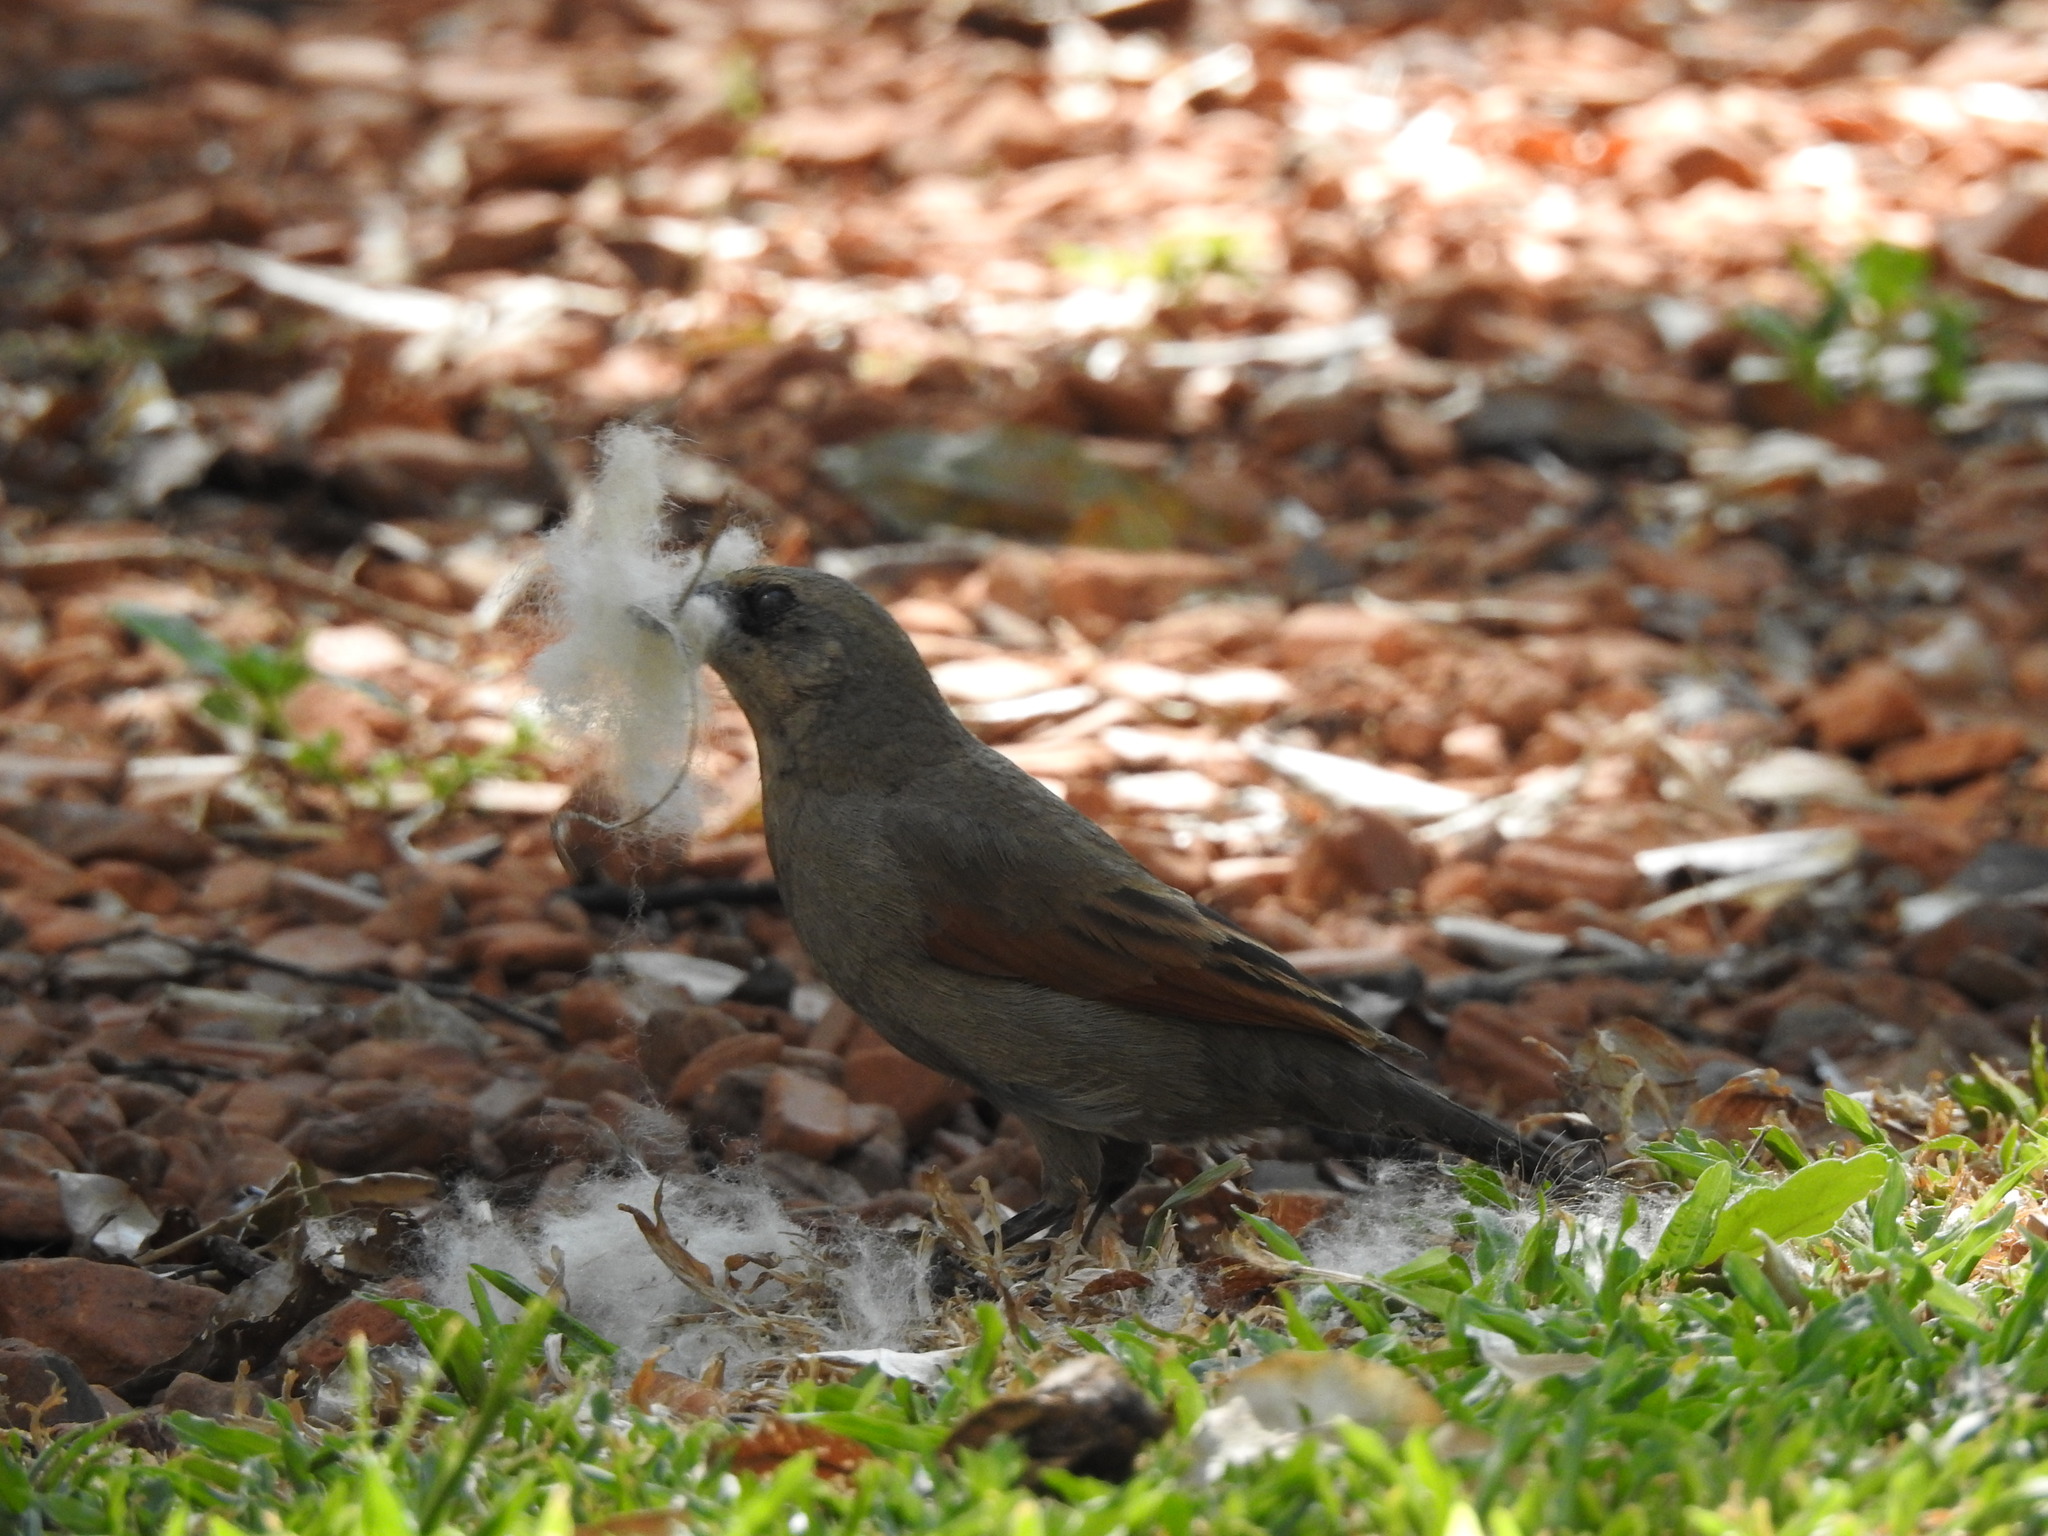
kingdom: Animalia
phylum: Chordata
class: Aves
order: Passeriformes
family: Icteridae
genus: Agelaioides
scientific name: Agelaioides badius
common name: Baywing
